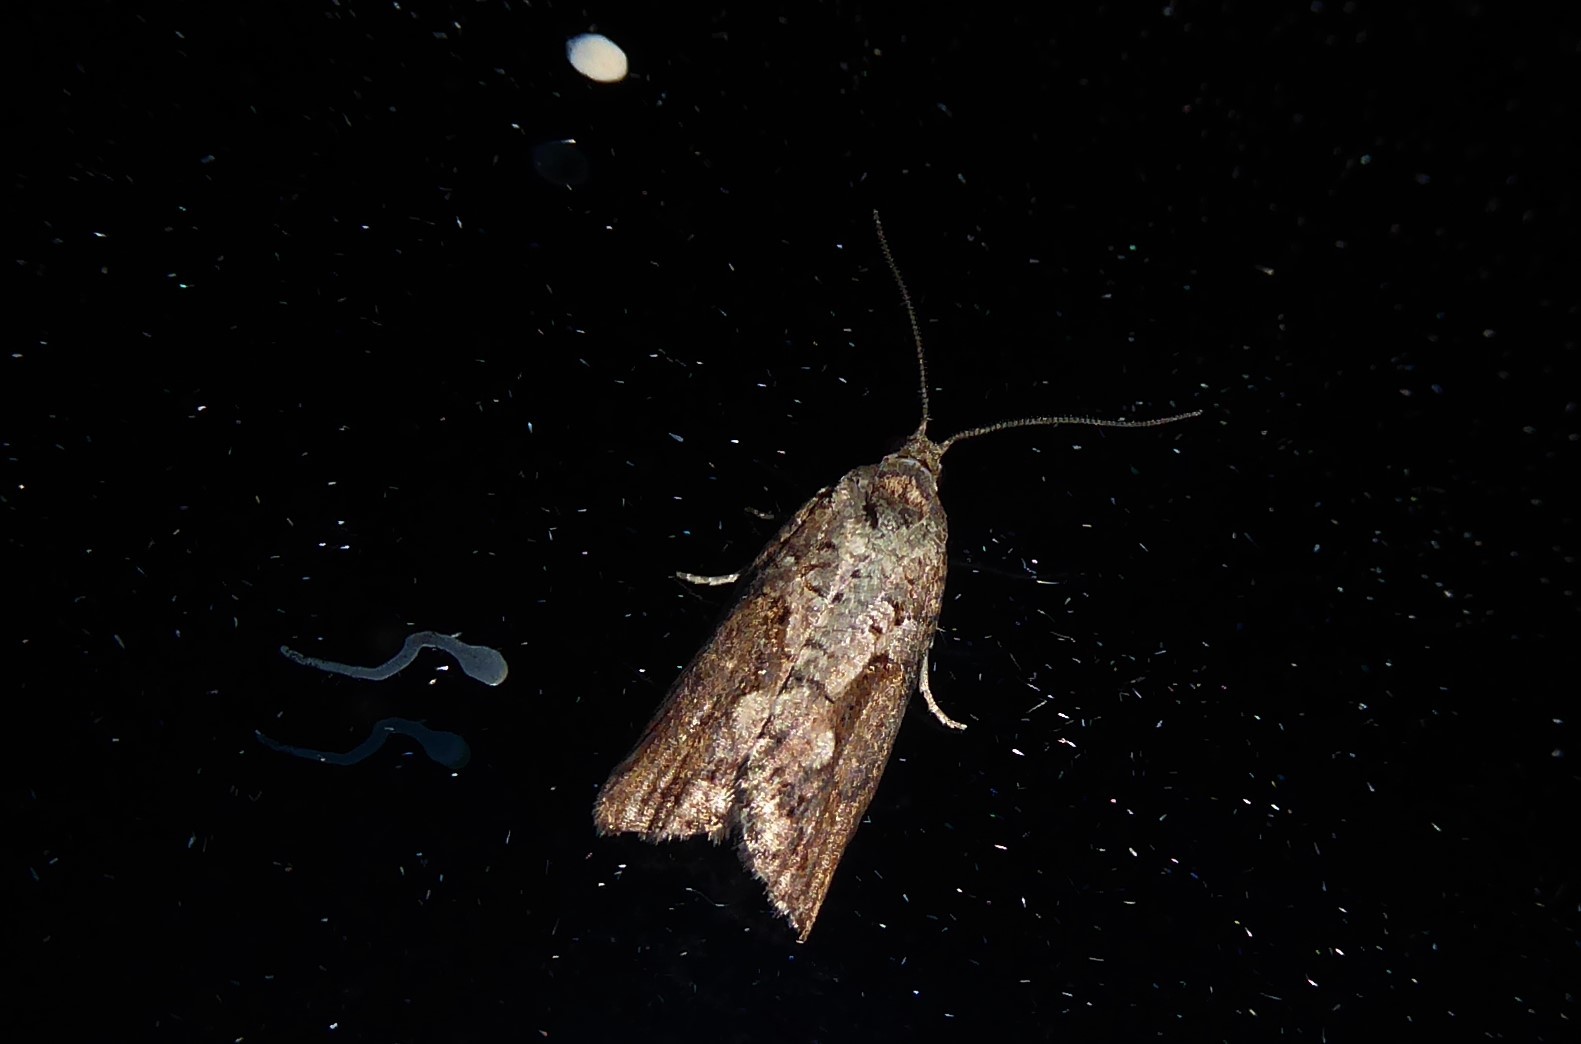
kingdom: Animalia
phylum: Arthropoda
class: Insecta
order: Lepidoptera
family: Tortricidae
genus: Harmologa
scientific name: Harmologa oblongana
